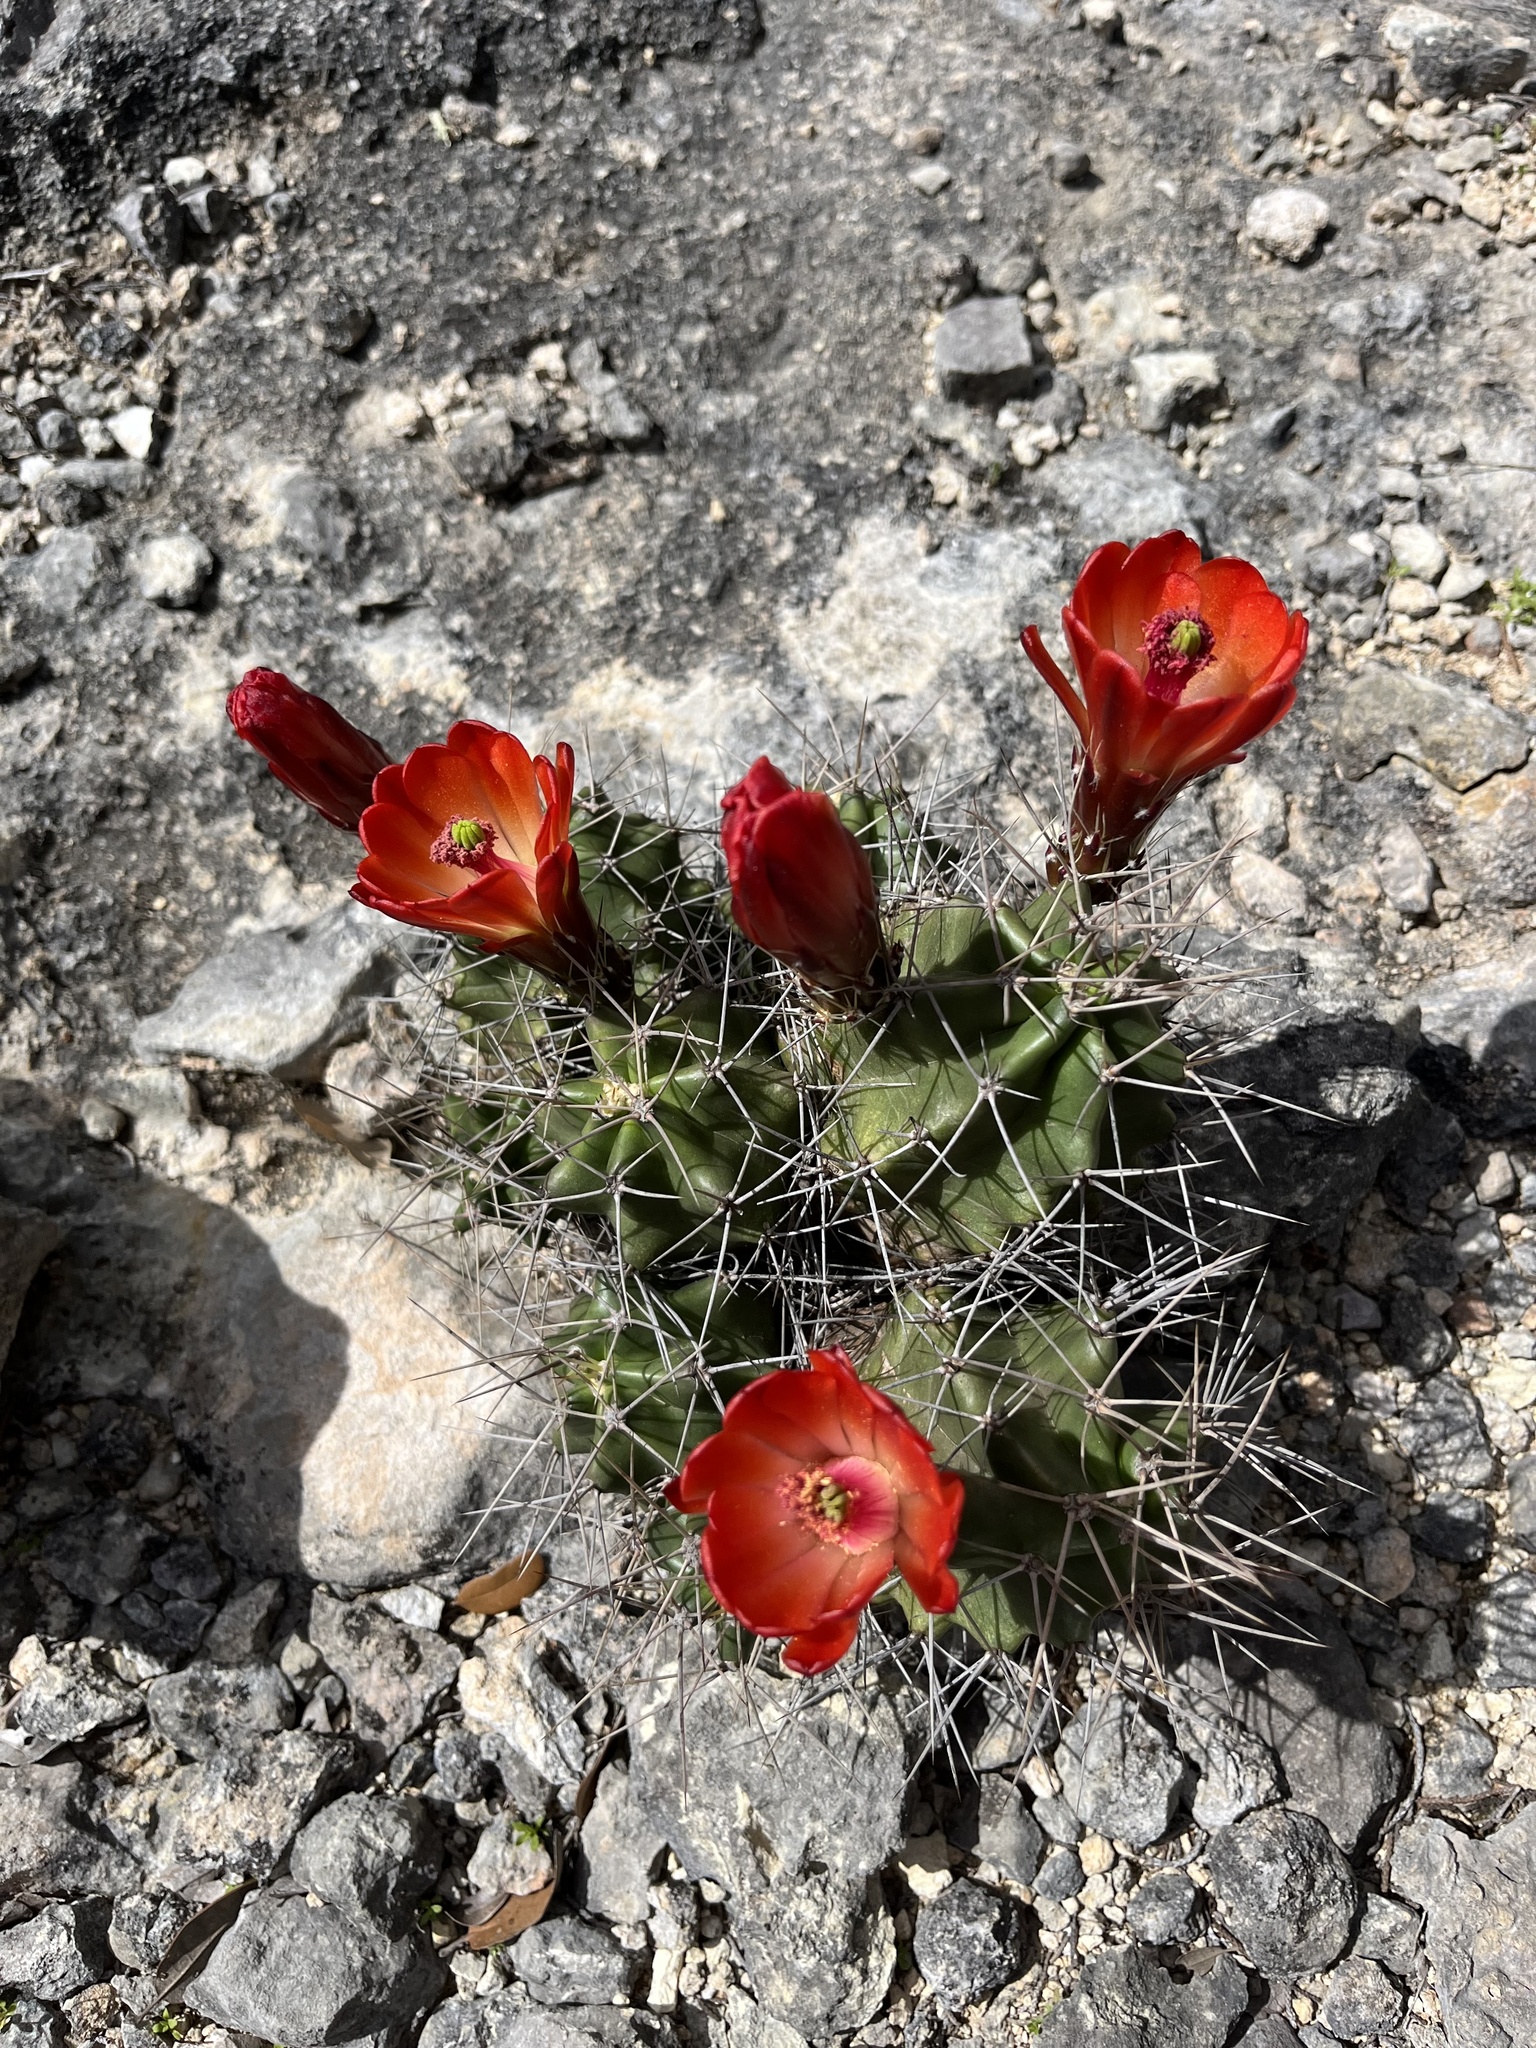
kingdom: Plantae
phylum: Tracheophyta
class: Magnoliopsida
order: Caryophyllales
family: Cactaceae
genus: Echinocereus
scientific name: Echinocereus coccineus
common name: Scarlet hedgehog cactus
